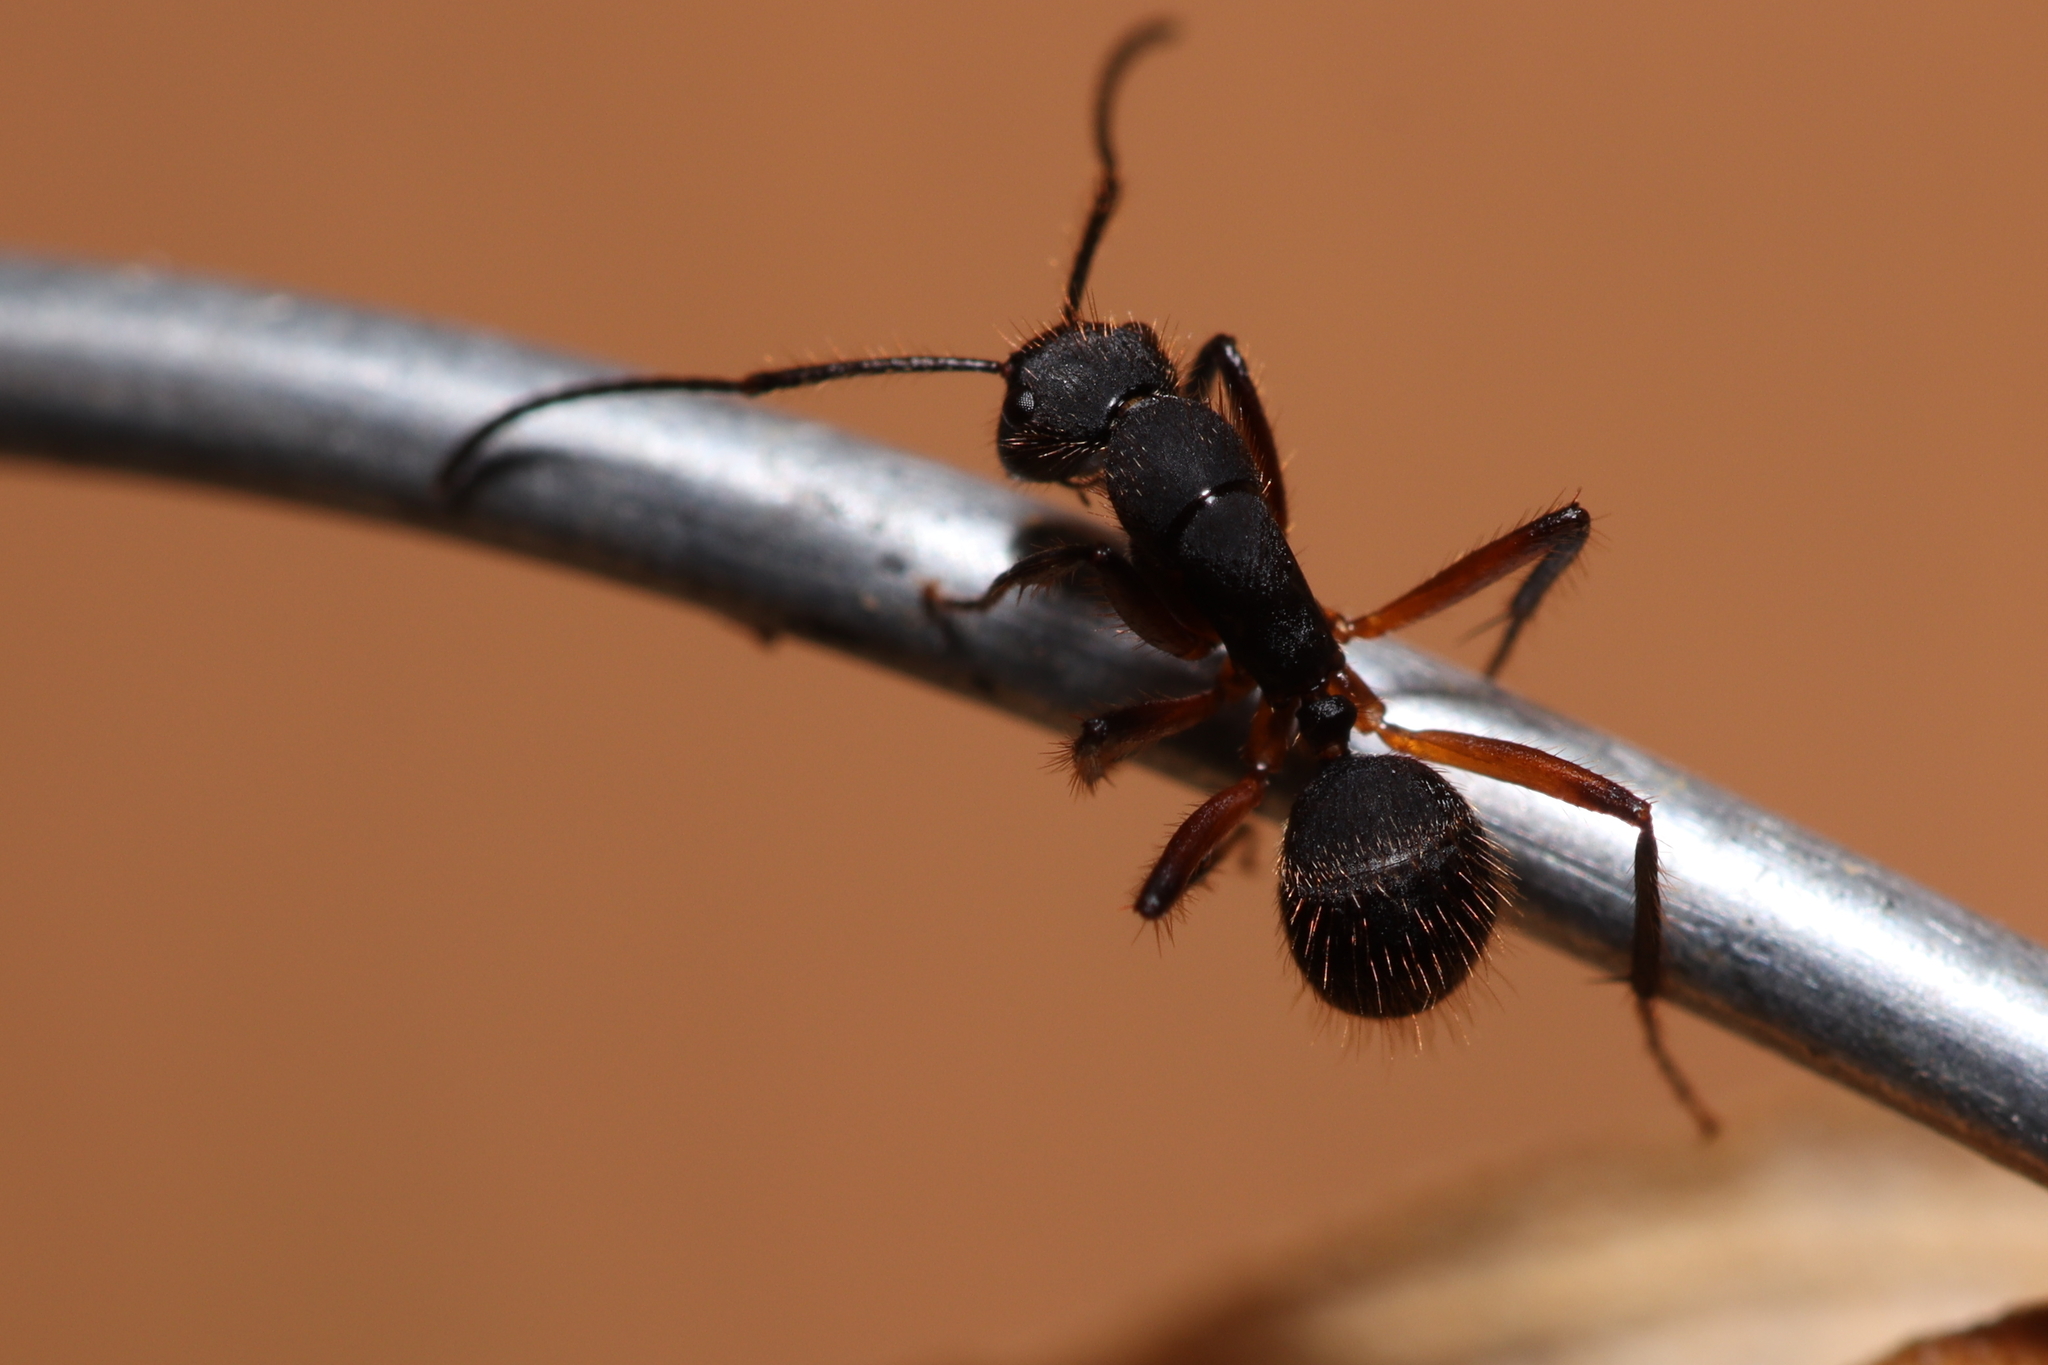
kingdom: Animalia
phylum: Arthropoda
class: Insecta
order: Hymenoptera
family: Formicidae
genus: Camponotus
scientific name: Camponotus rufipes
